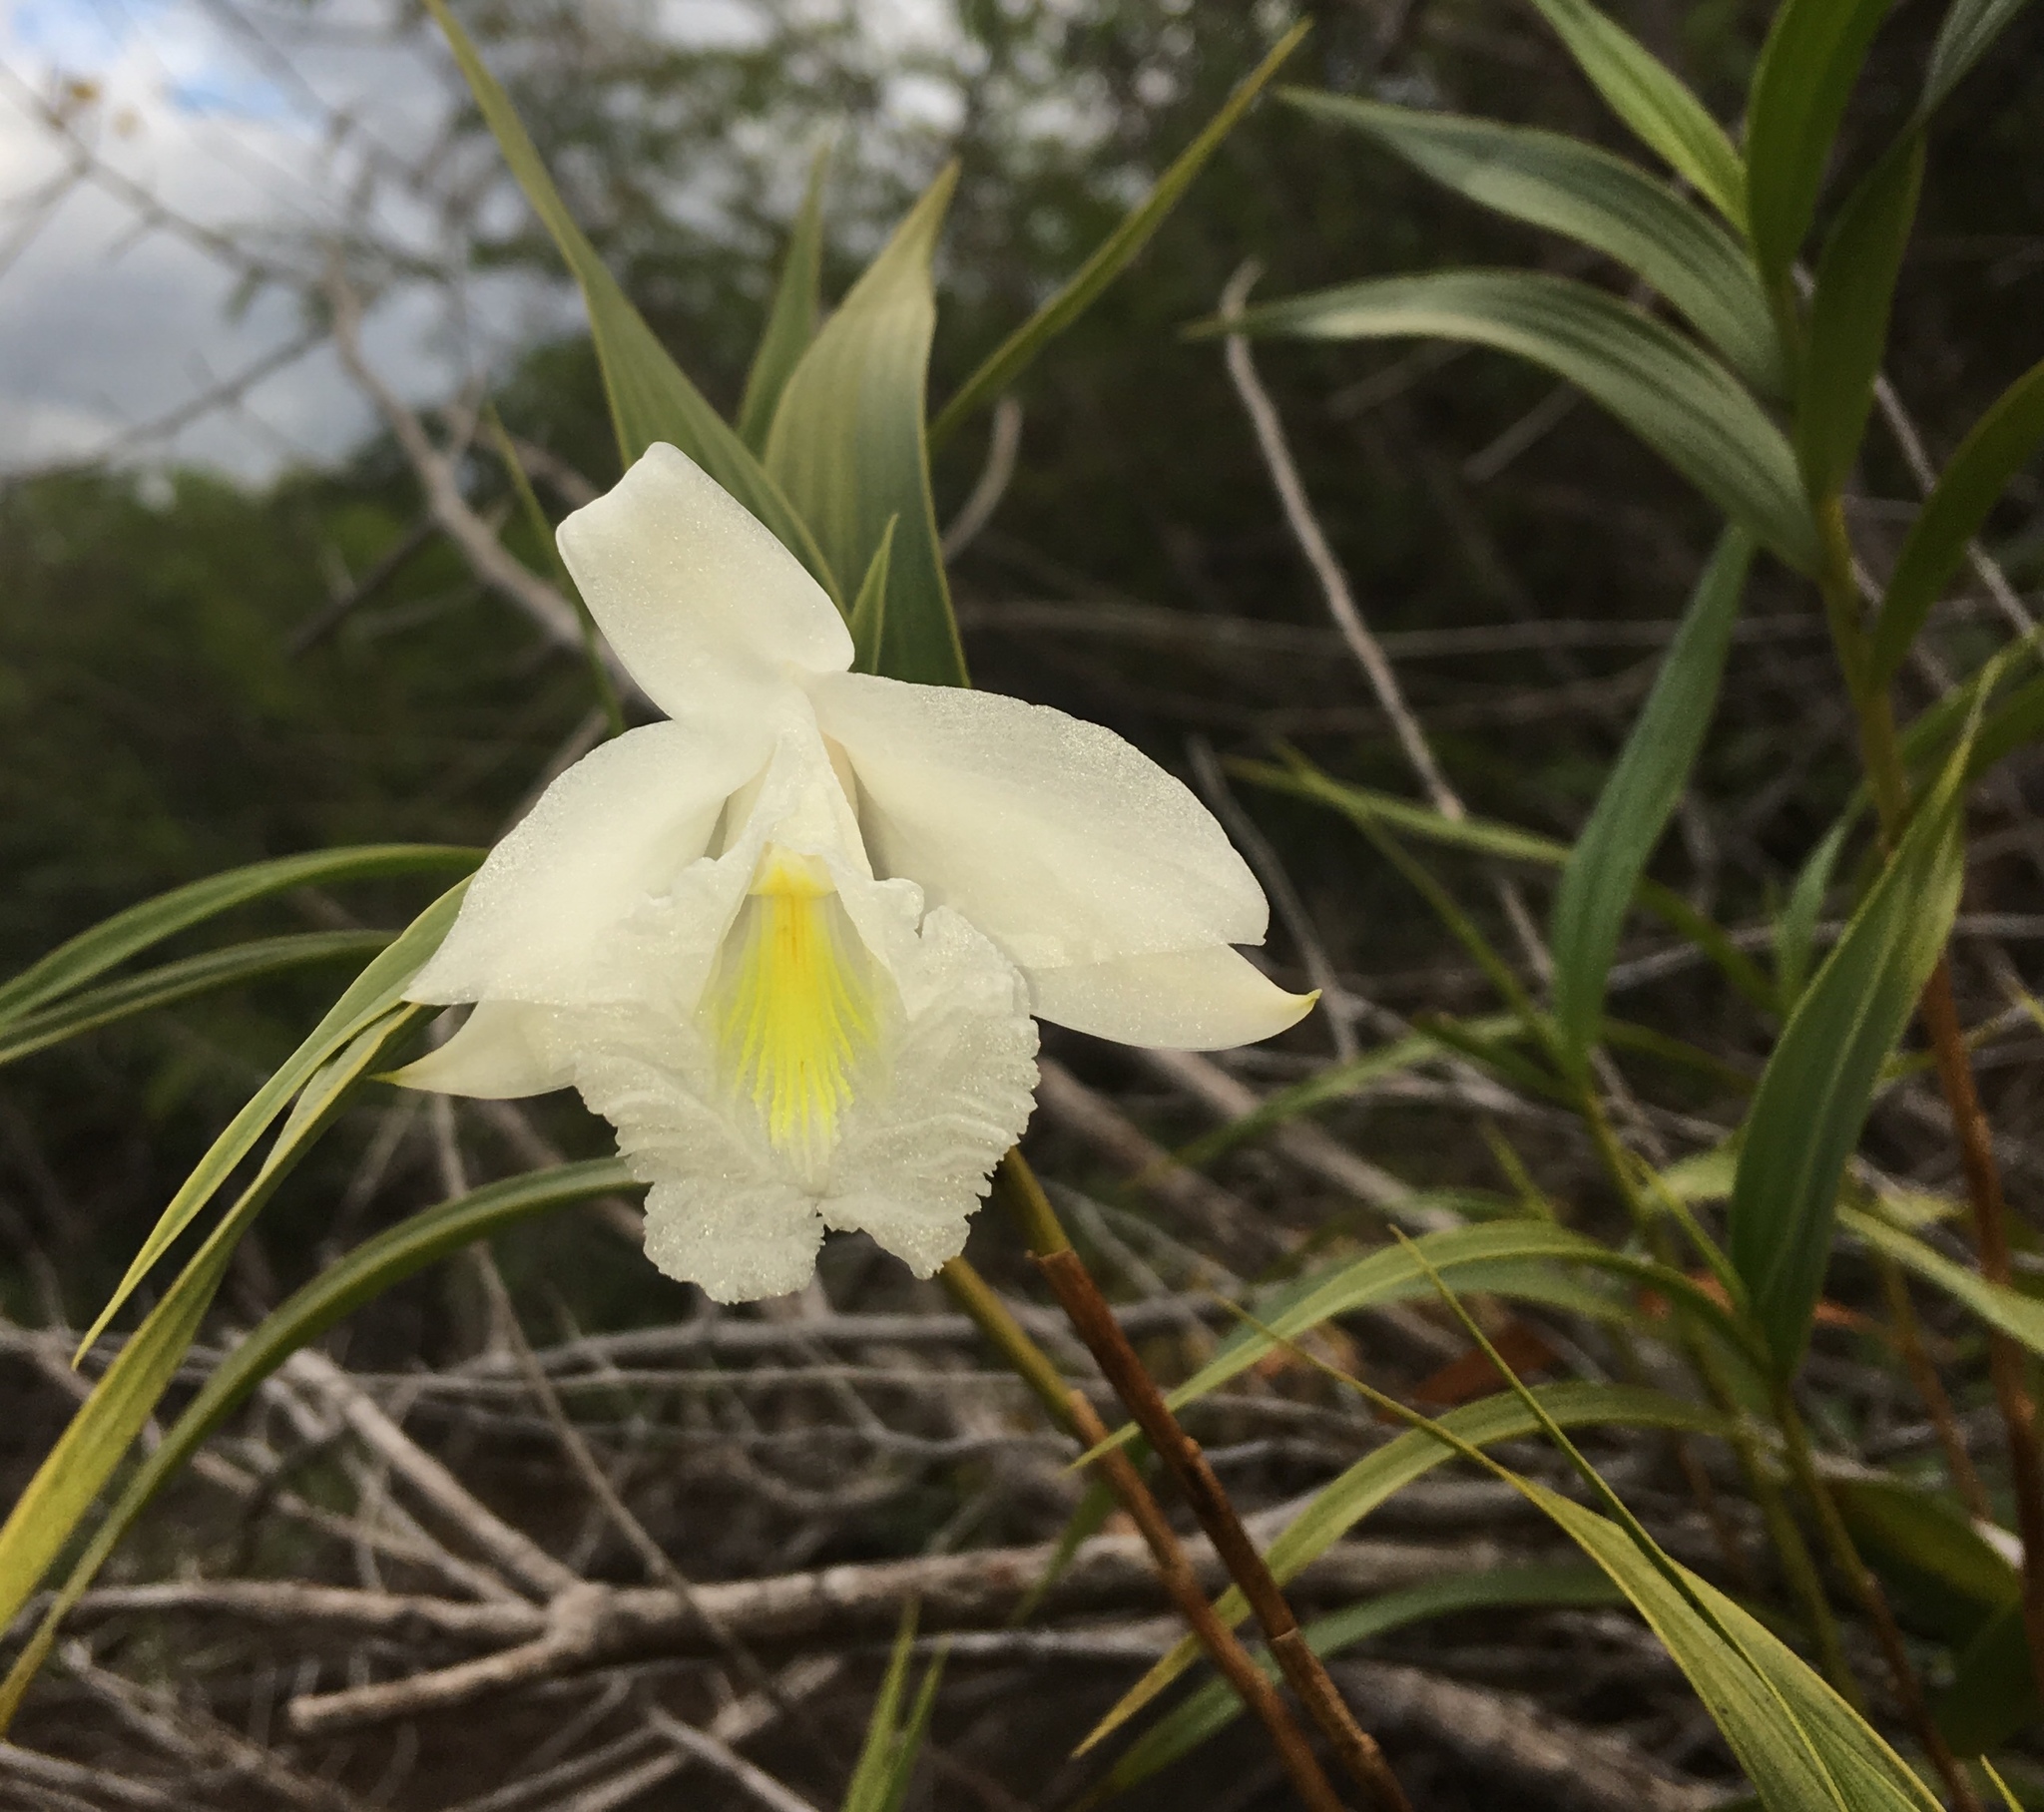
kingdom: Plantae
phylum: Tracheophyta
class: Liliopsida
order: Asparagales
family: Orchidaceae
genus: Sobralia
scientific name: Sobralia granitica
